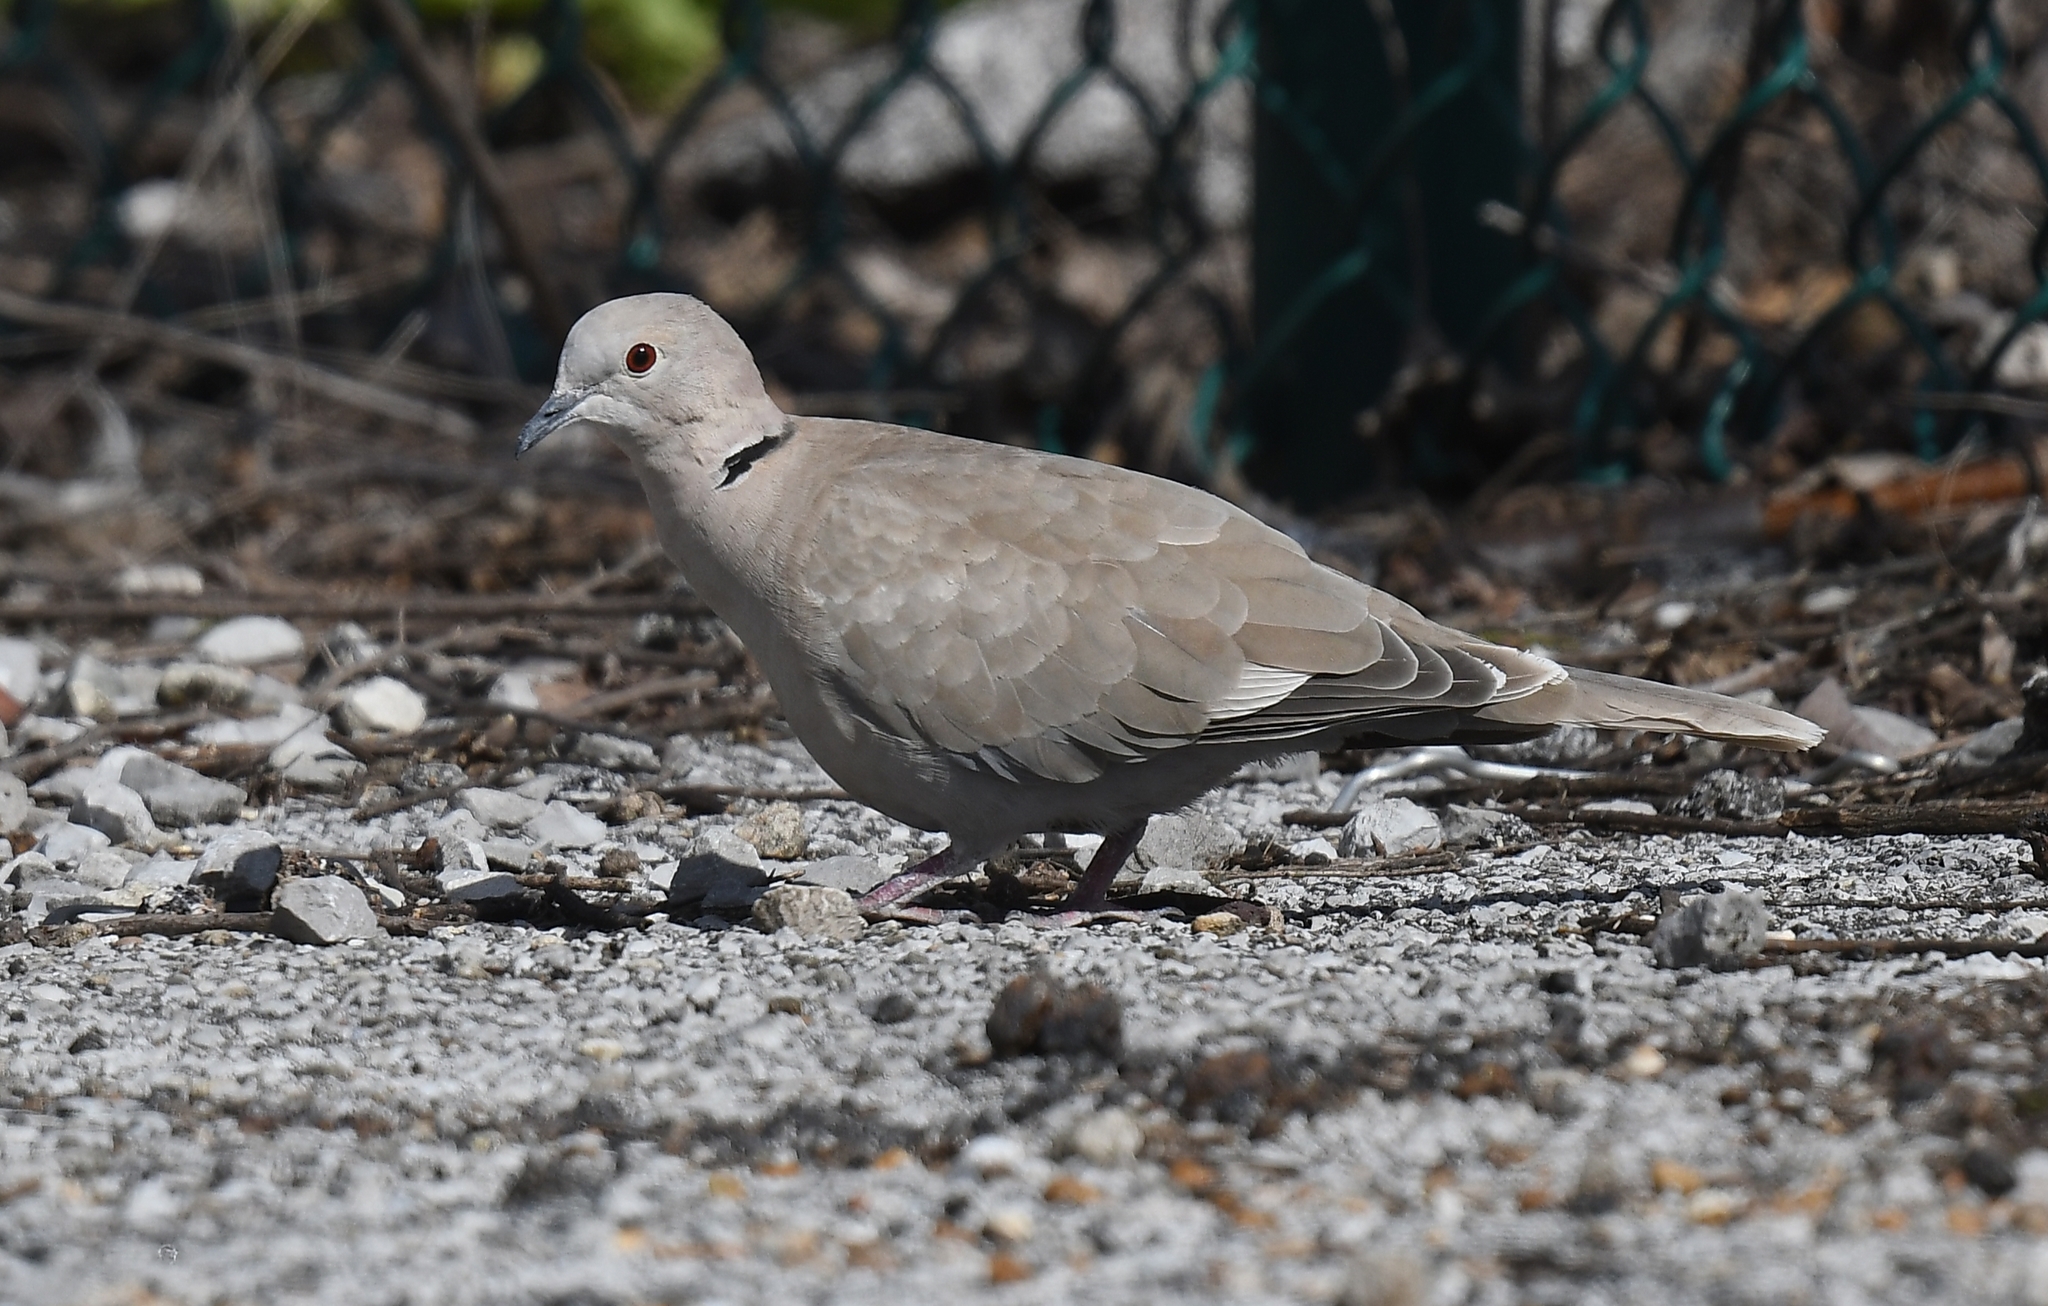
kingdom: Animalia
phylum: Chordata
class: Aves
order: Columbiformes
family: Columbidae
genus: Streptopelia
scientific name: Streptopelia decaocto
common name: Eurasian collared dove
